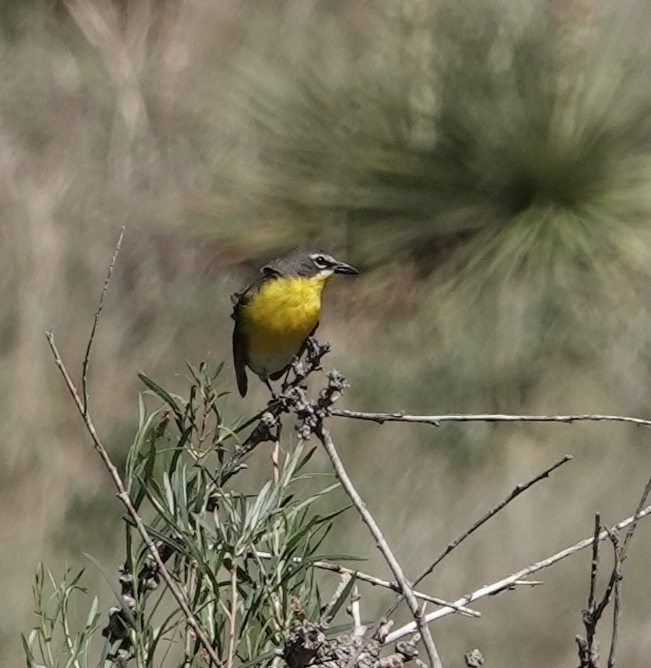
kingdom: Animalia
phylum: Chordata
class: Aves
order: Passeriformes
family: Parulidae
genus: Icteria
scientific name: Icteria virens
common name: Yellow-breasted chat
